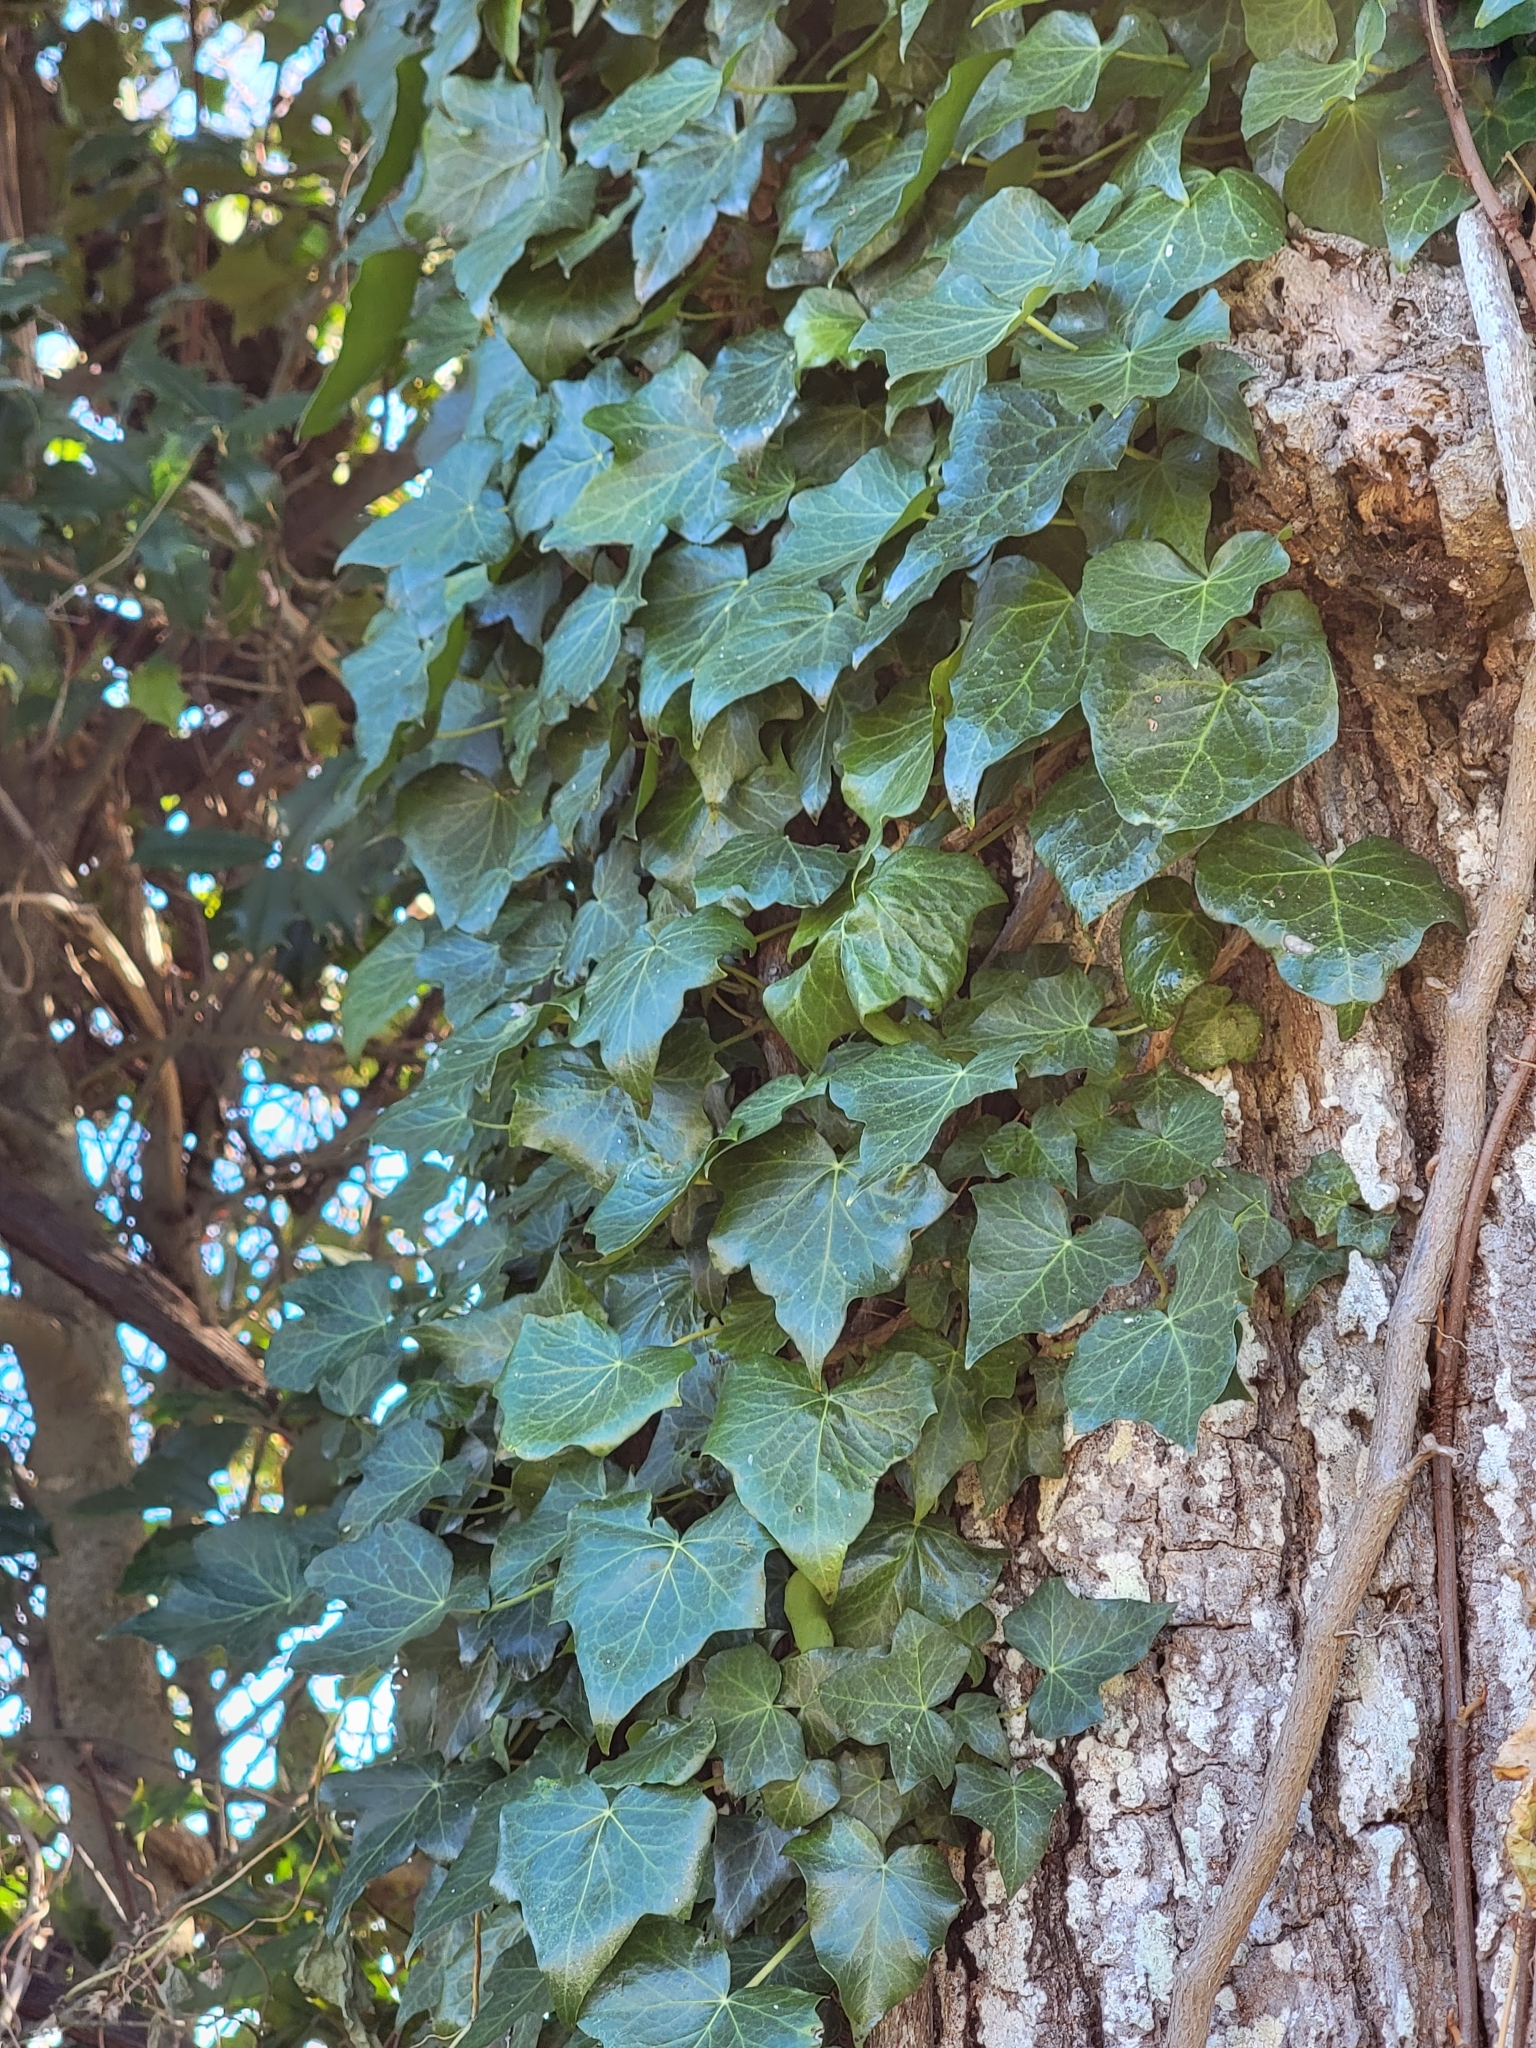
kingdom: Plantae
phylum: Tracheophyta
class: Magnoliopsida
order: Apiales
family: Araliaceae
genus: Hedera
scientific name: Hedera helix
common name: Ivy
